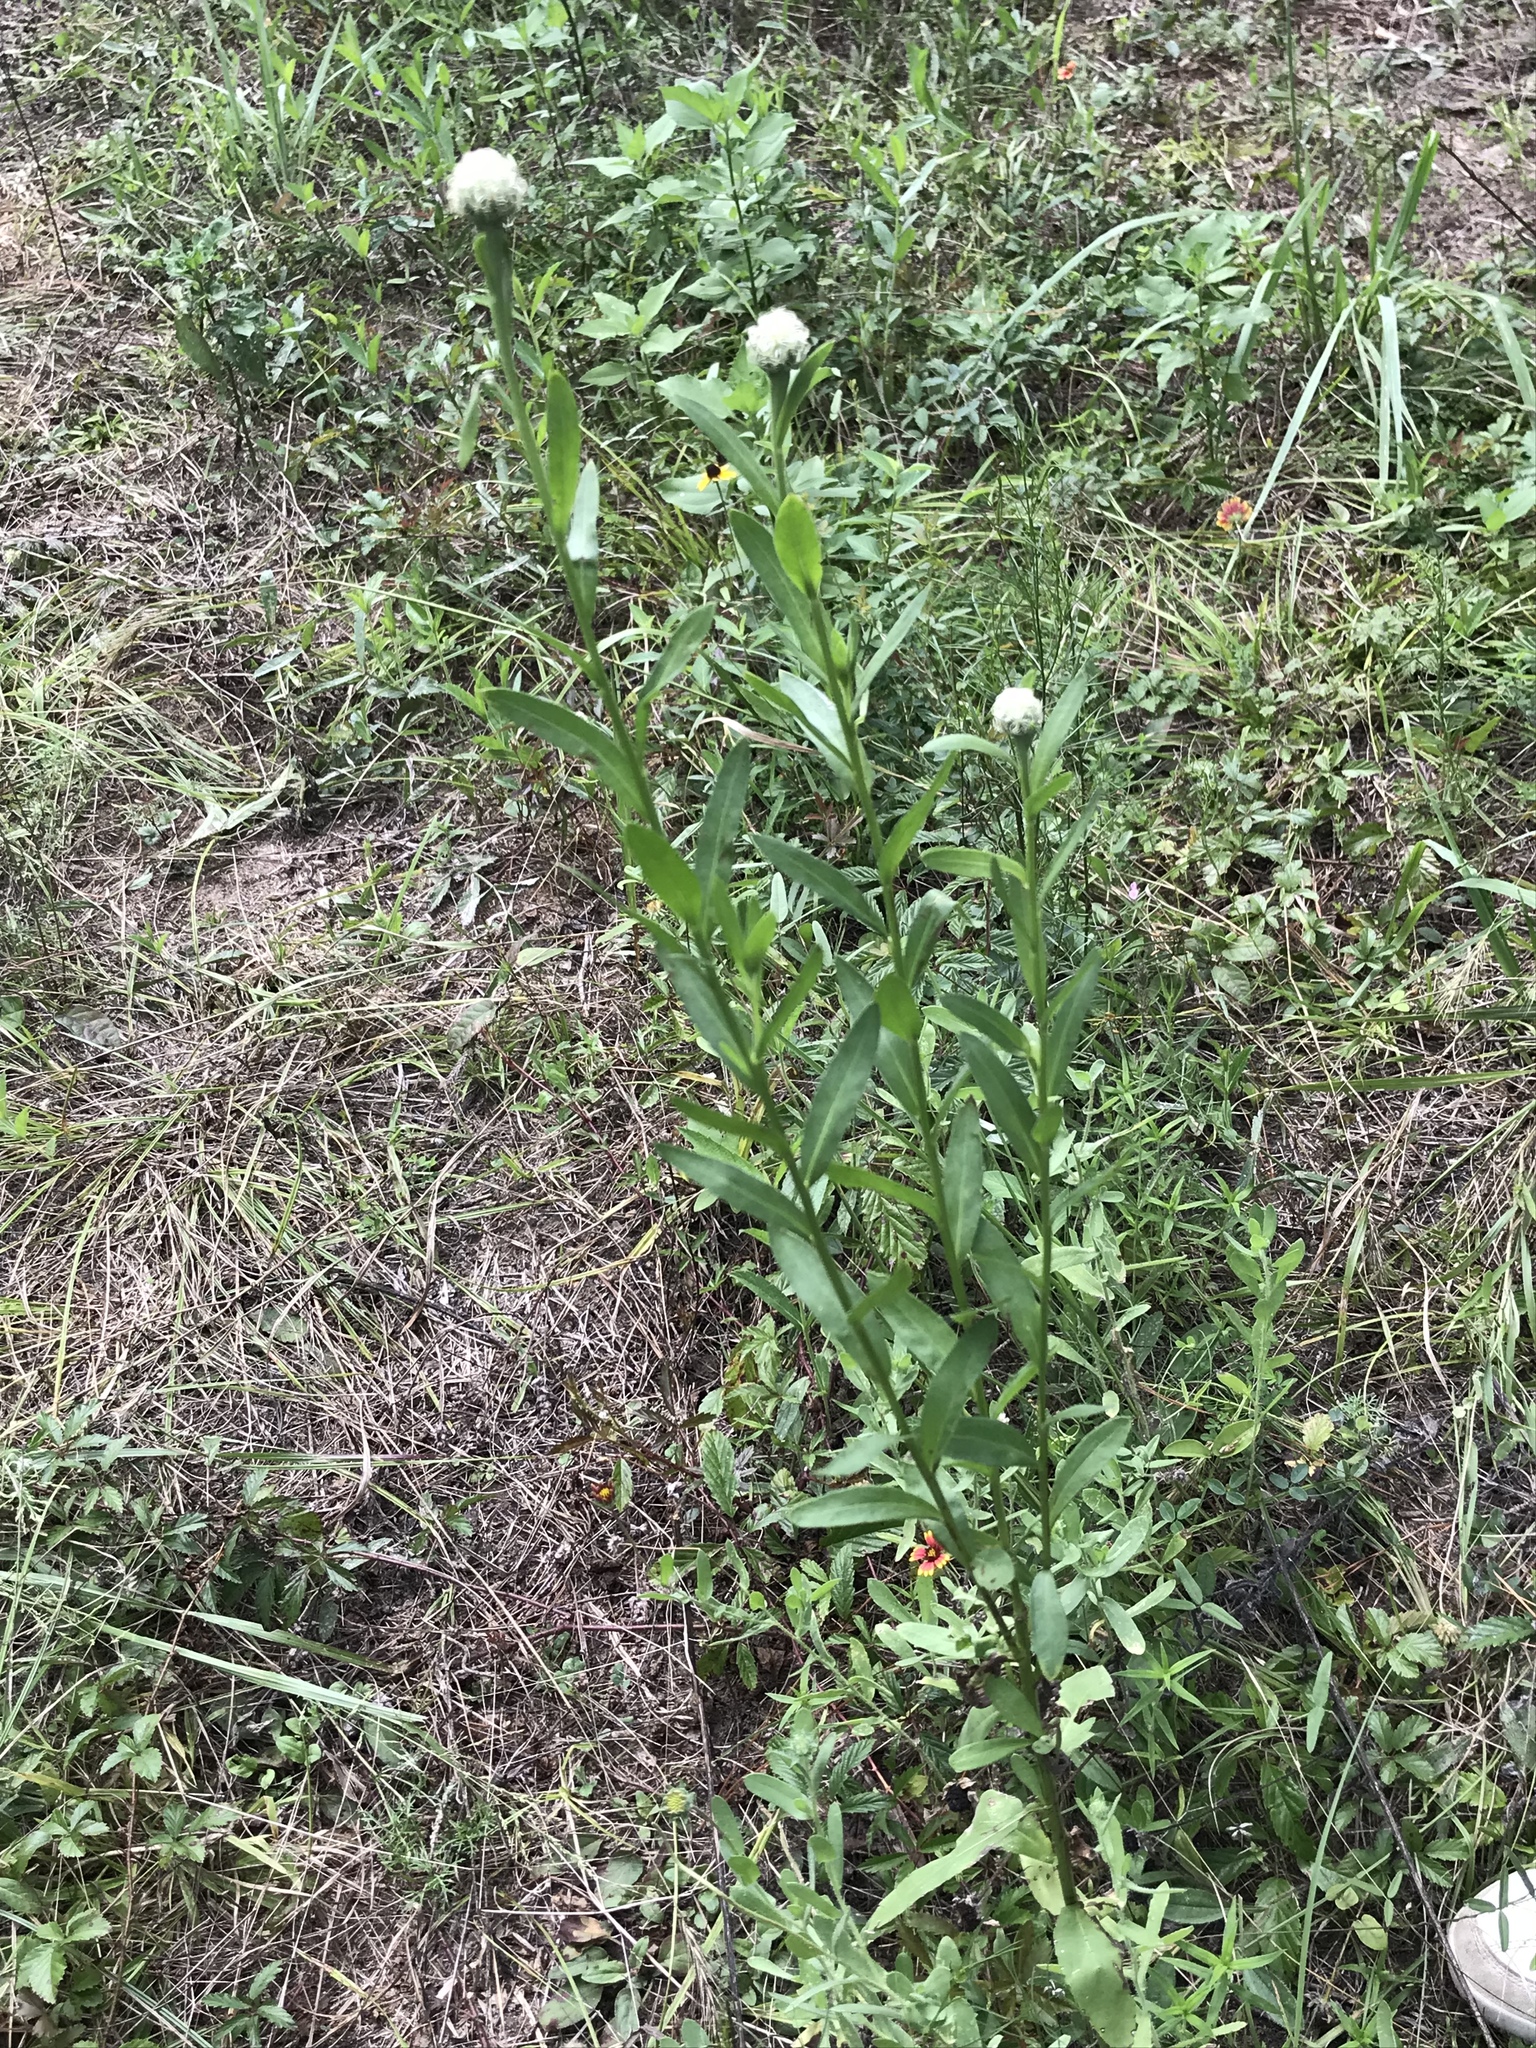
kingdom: Plantae
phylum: Tracheophyta
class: Magnoliopsida
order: Asterales
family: Asteraceae
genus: Plectocephalus
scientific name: Plectocephalus americanus
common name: American basket-flower
